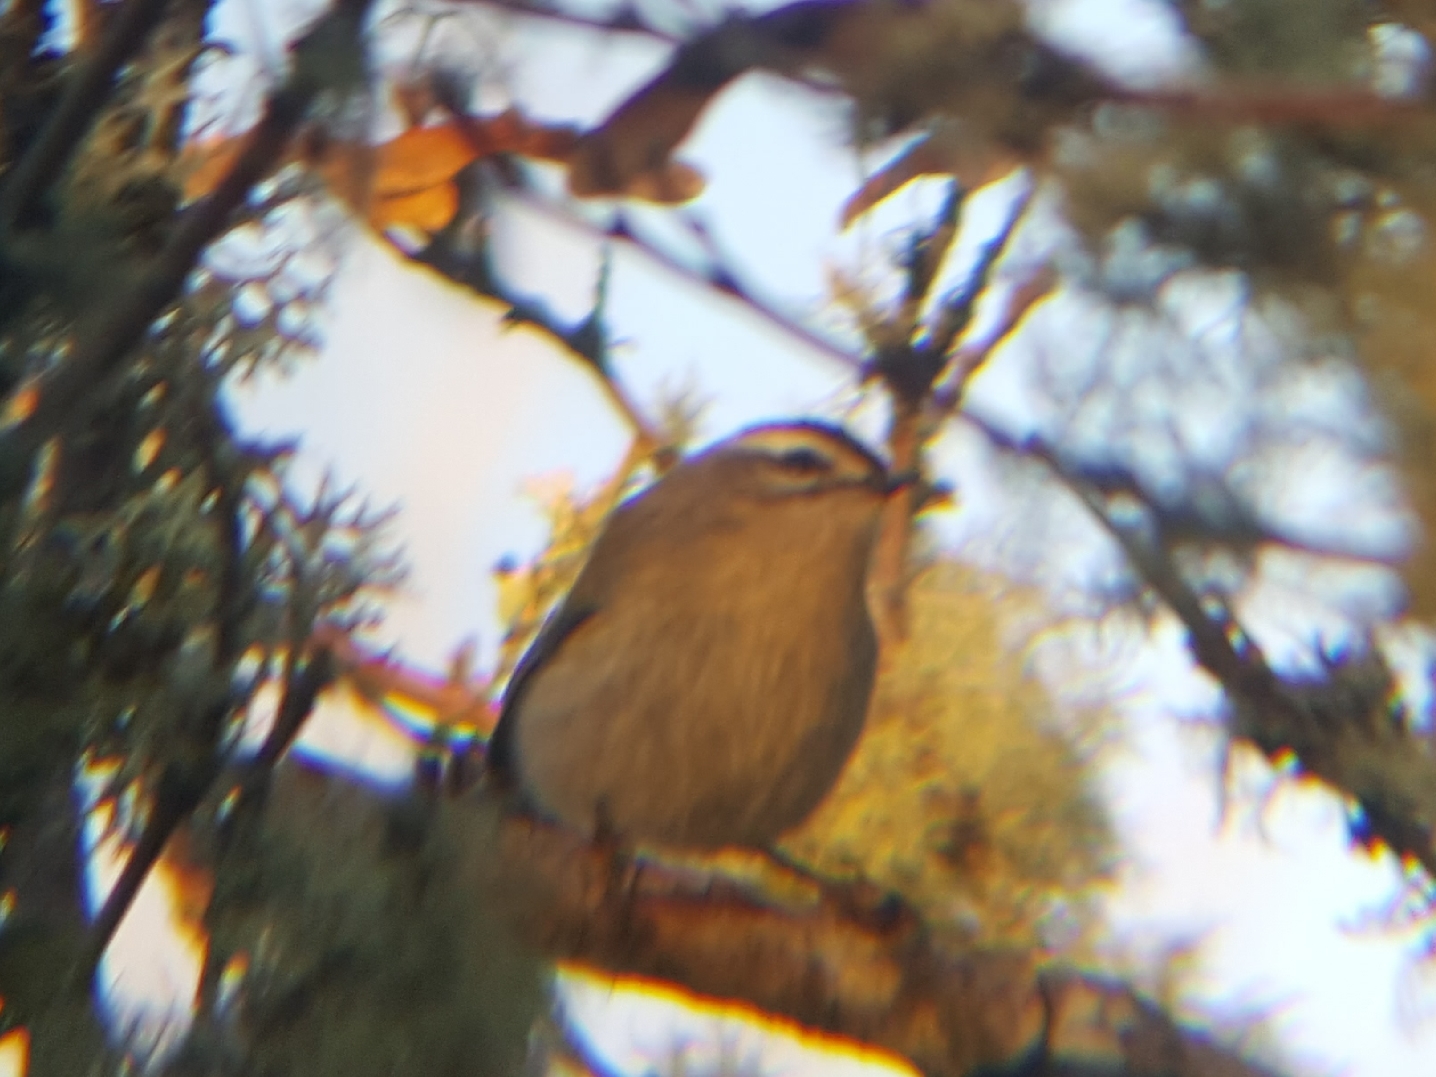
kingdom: Animalia
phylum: Chordata
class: Aves
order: Passeriformes
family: Regulidae
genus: Regulus
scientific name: Regulus satrapa
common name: Golden-crowned kinglet
